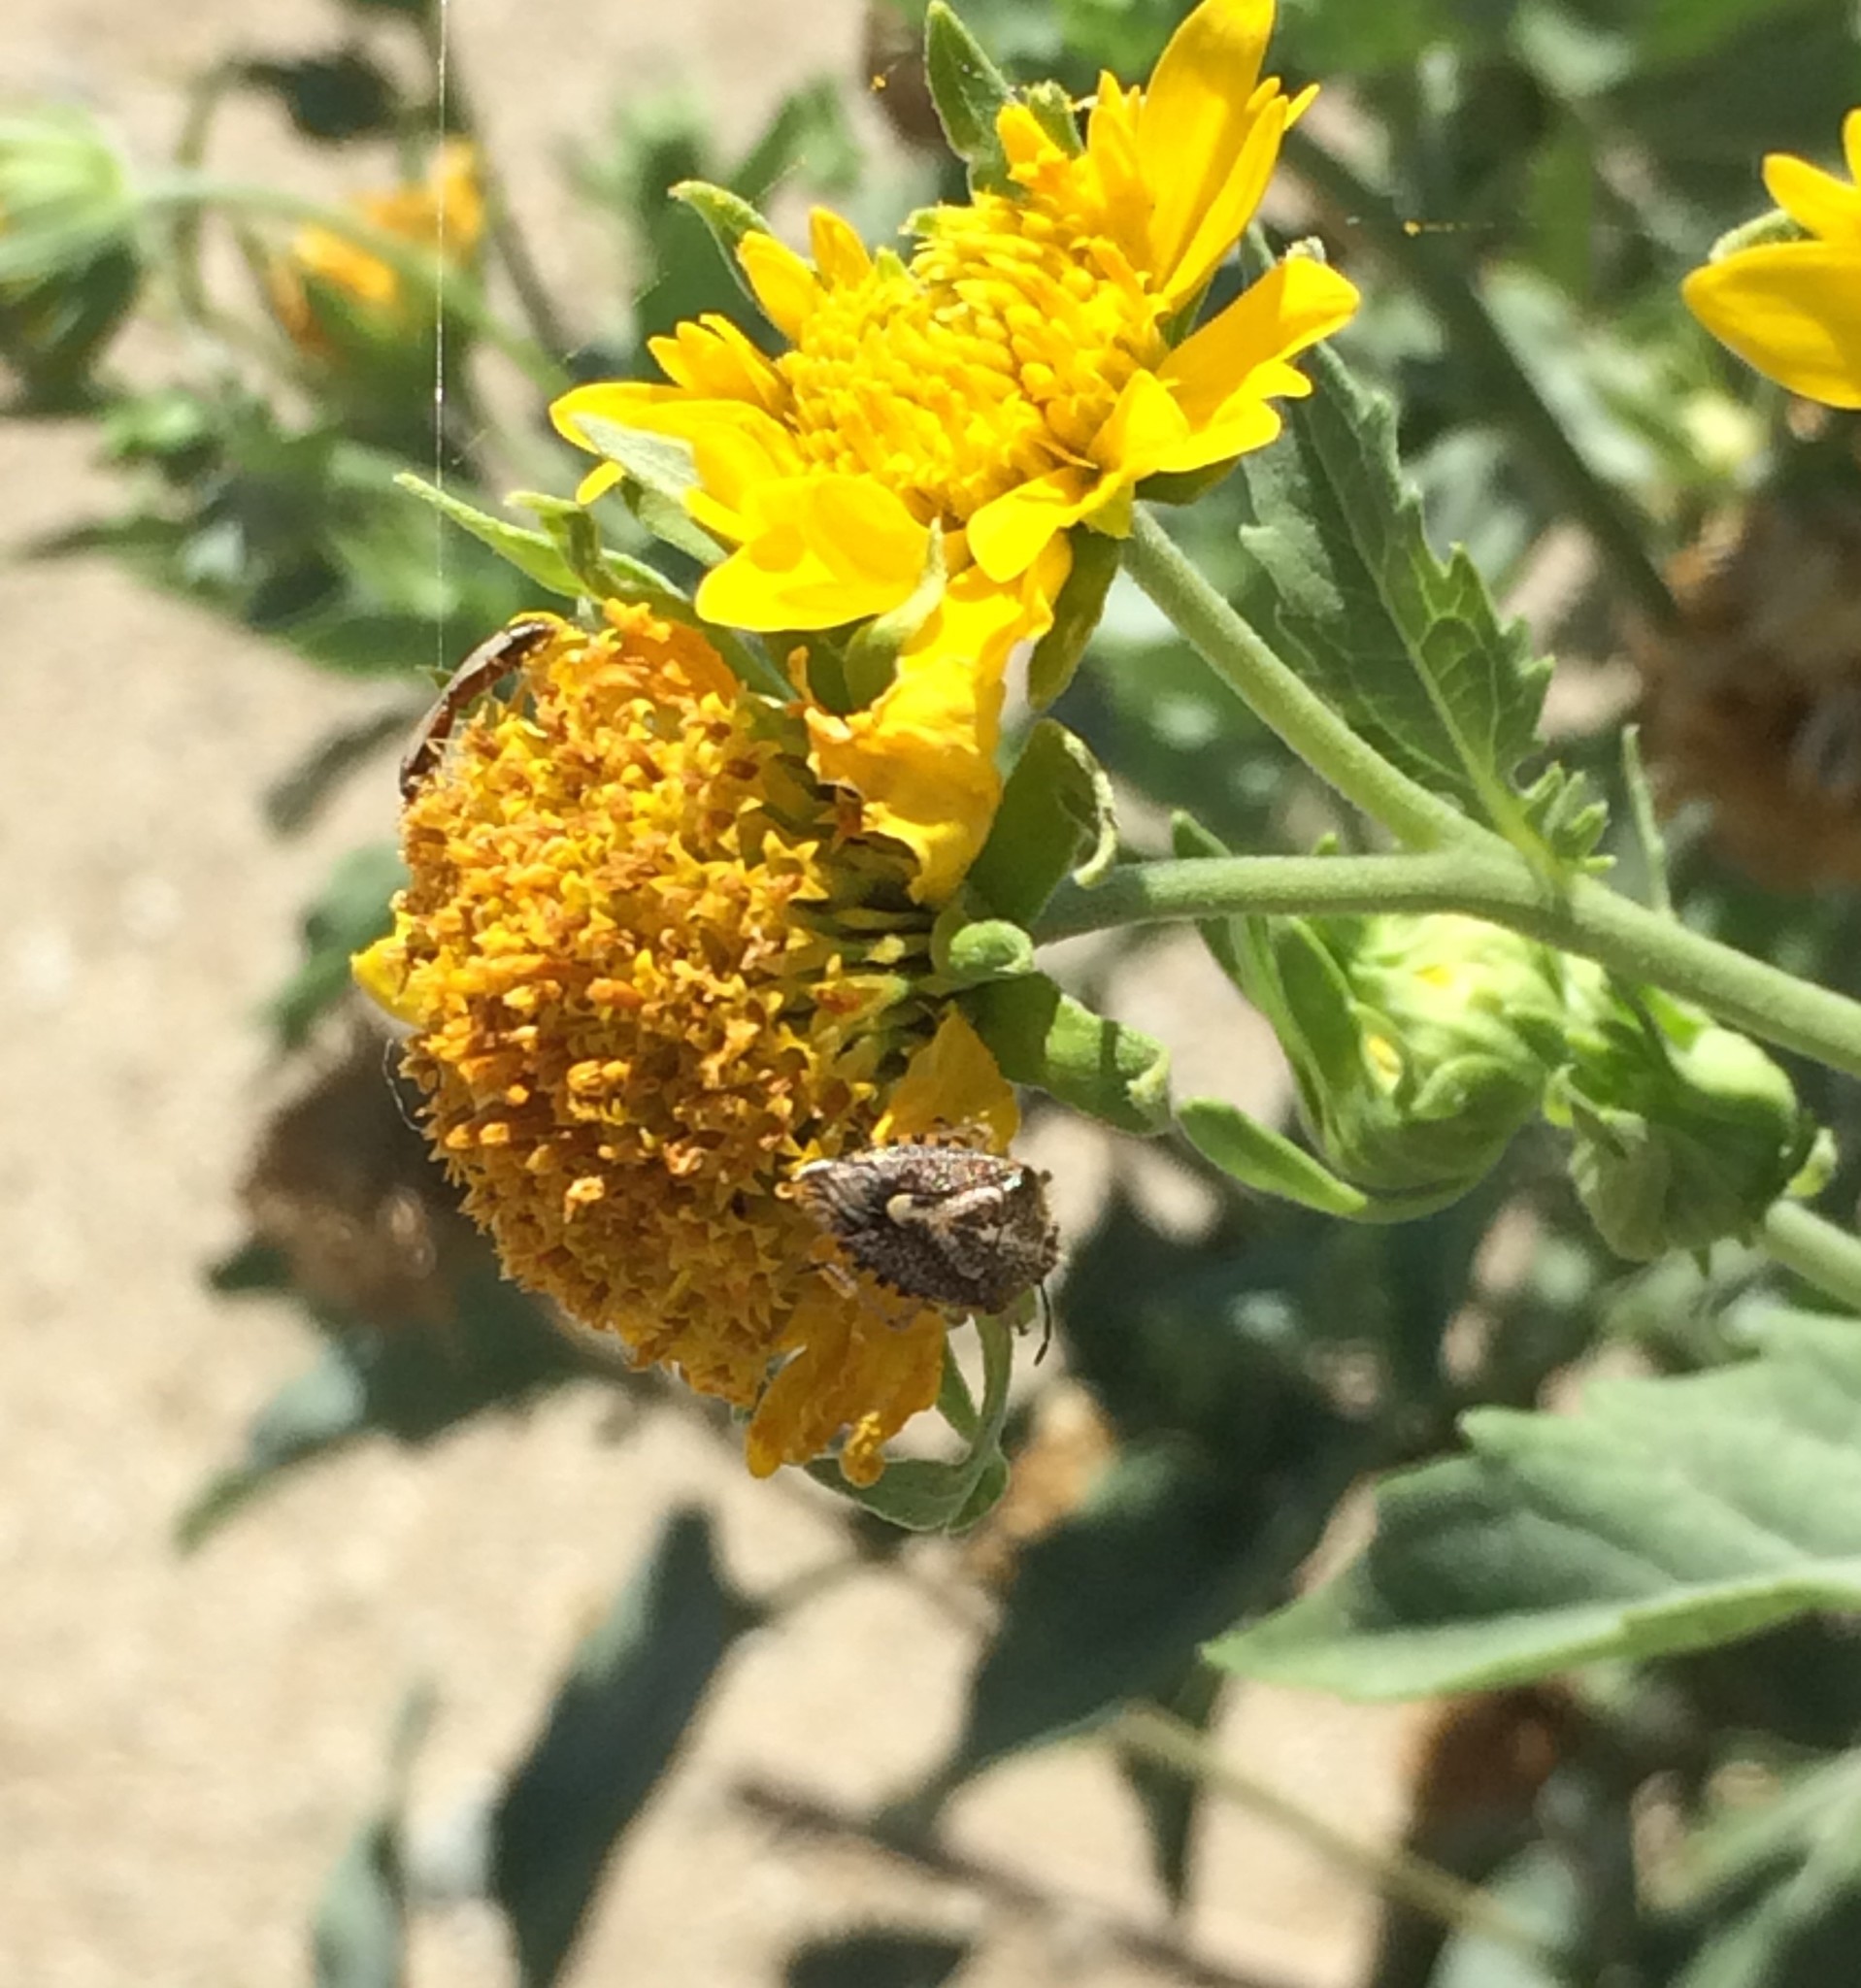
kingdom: Animalia
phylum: Arthropoda
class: Insecta
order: Hemiptera
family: Pentatomidae
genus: Agonoscelis
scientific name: Agonoscelis puberula
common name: African cluster bug
